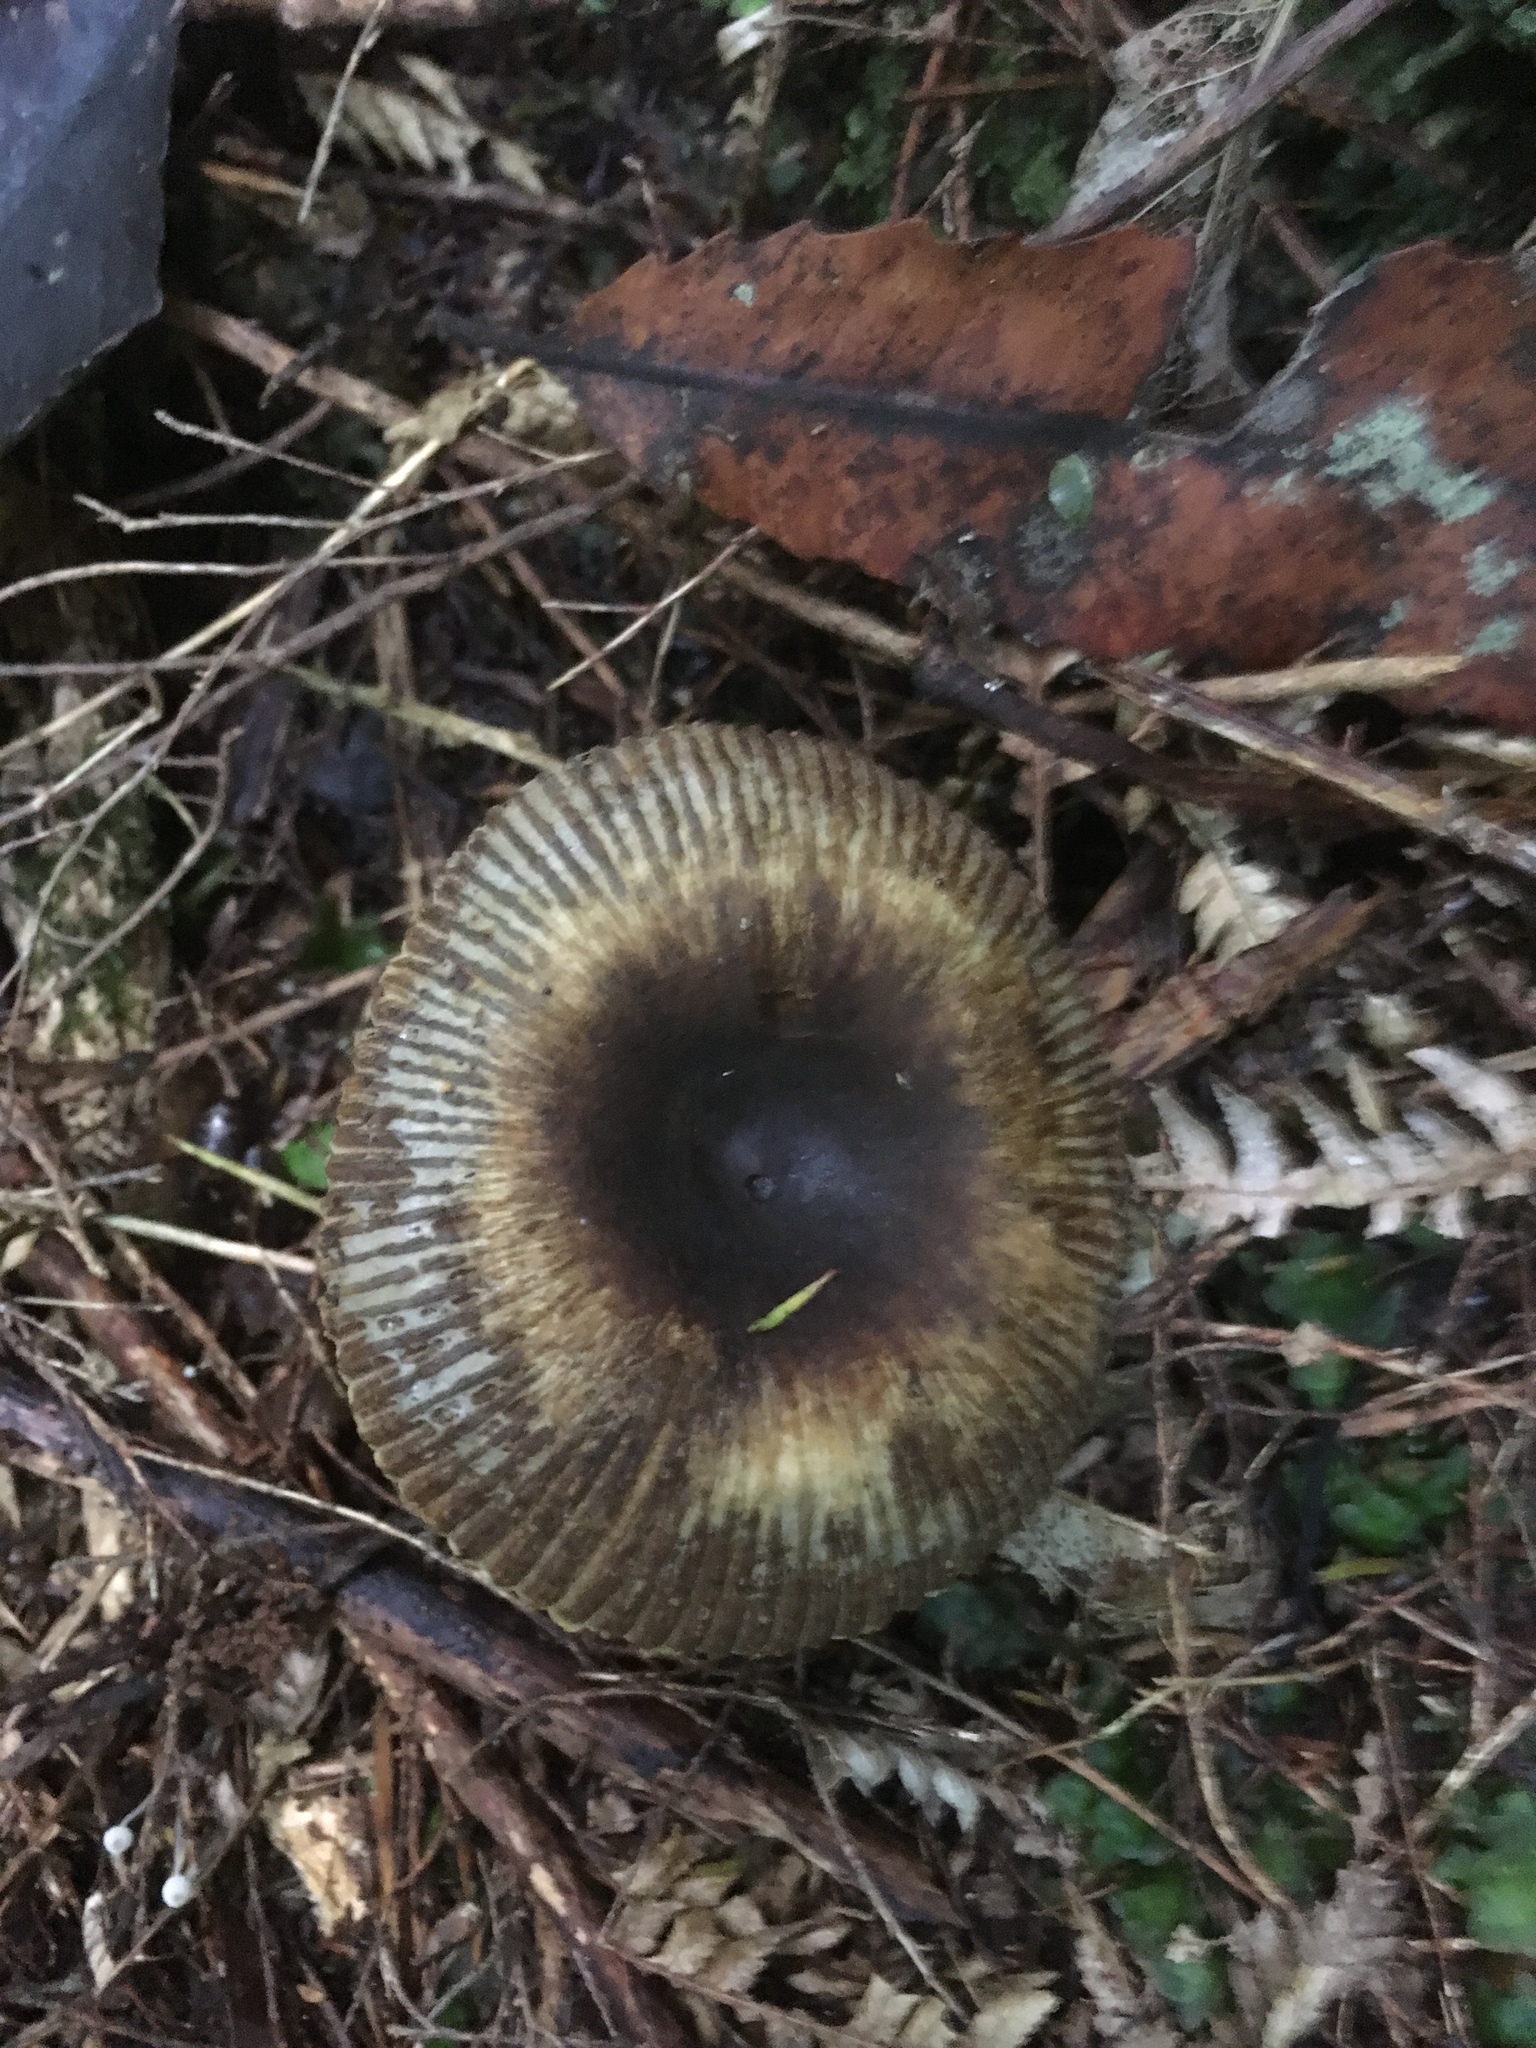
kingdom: Fungi
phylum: Basidiomycota
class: Agaricomycetes
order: Russulales
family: Russulaceae
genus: Russula
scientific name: Russula acrolamellata
